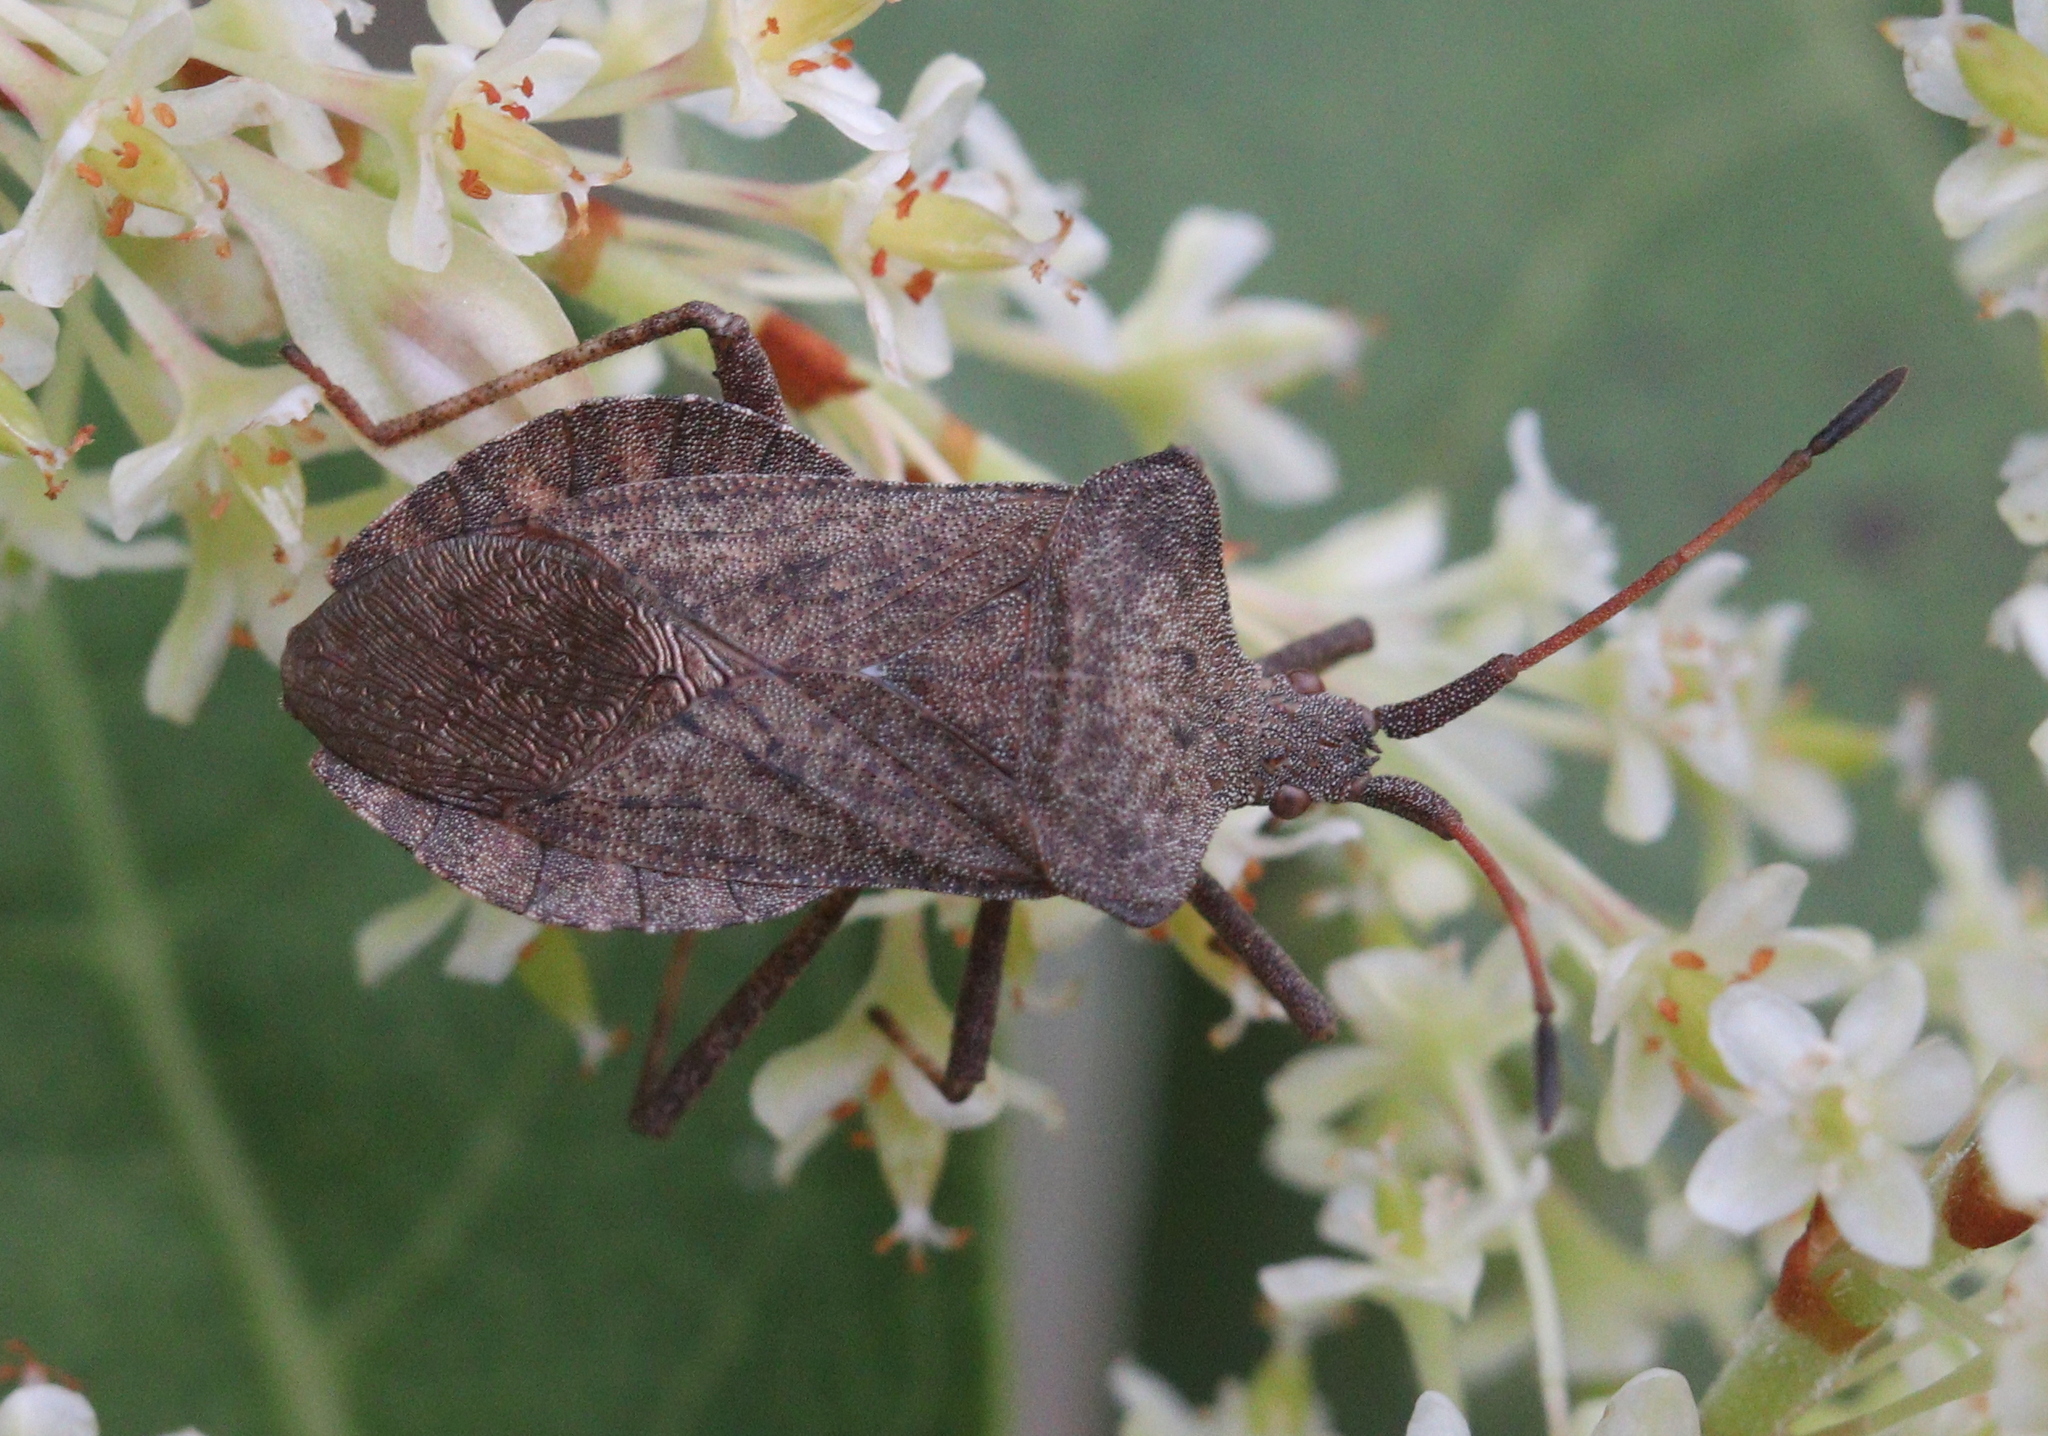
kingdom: Animalia
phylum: Arthropoda
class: Insecta
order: Hemiptera
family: Coreidae
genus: Coreus
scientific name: Coreus marginatus
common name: Dock bug
